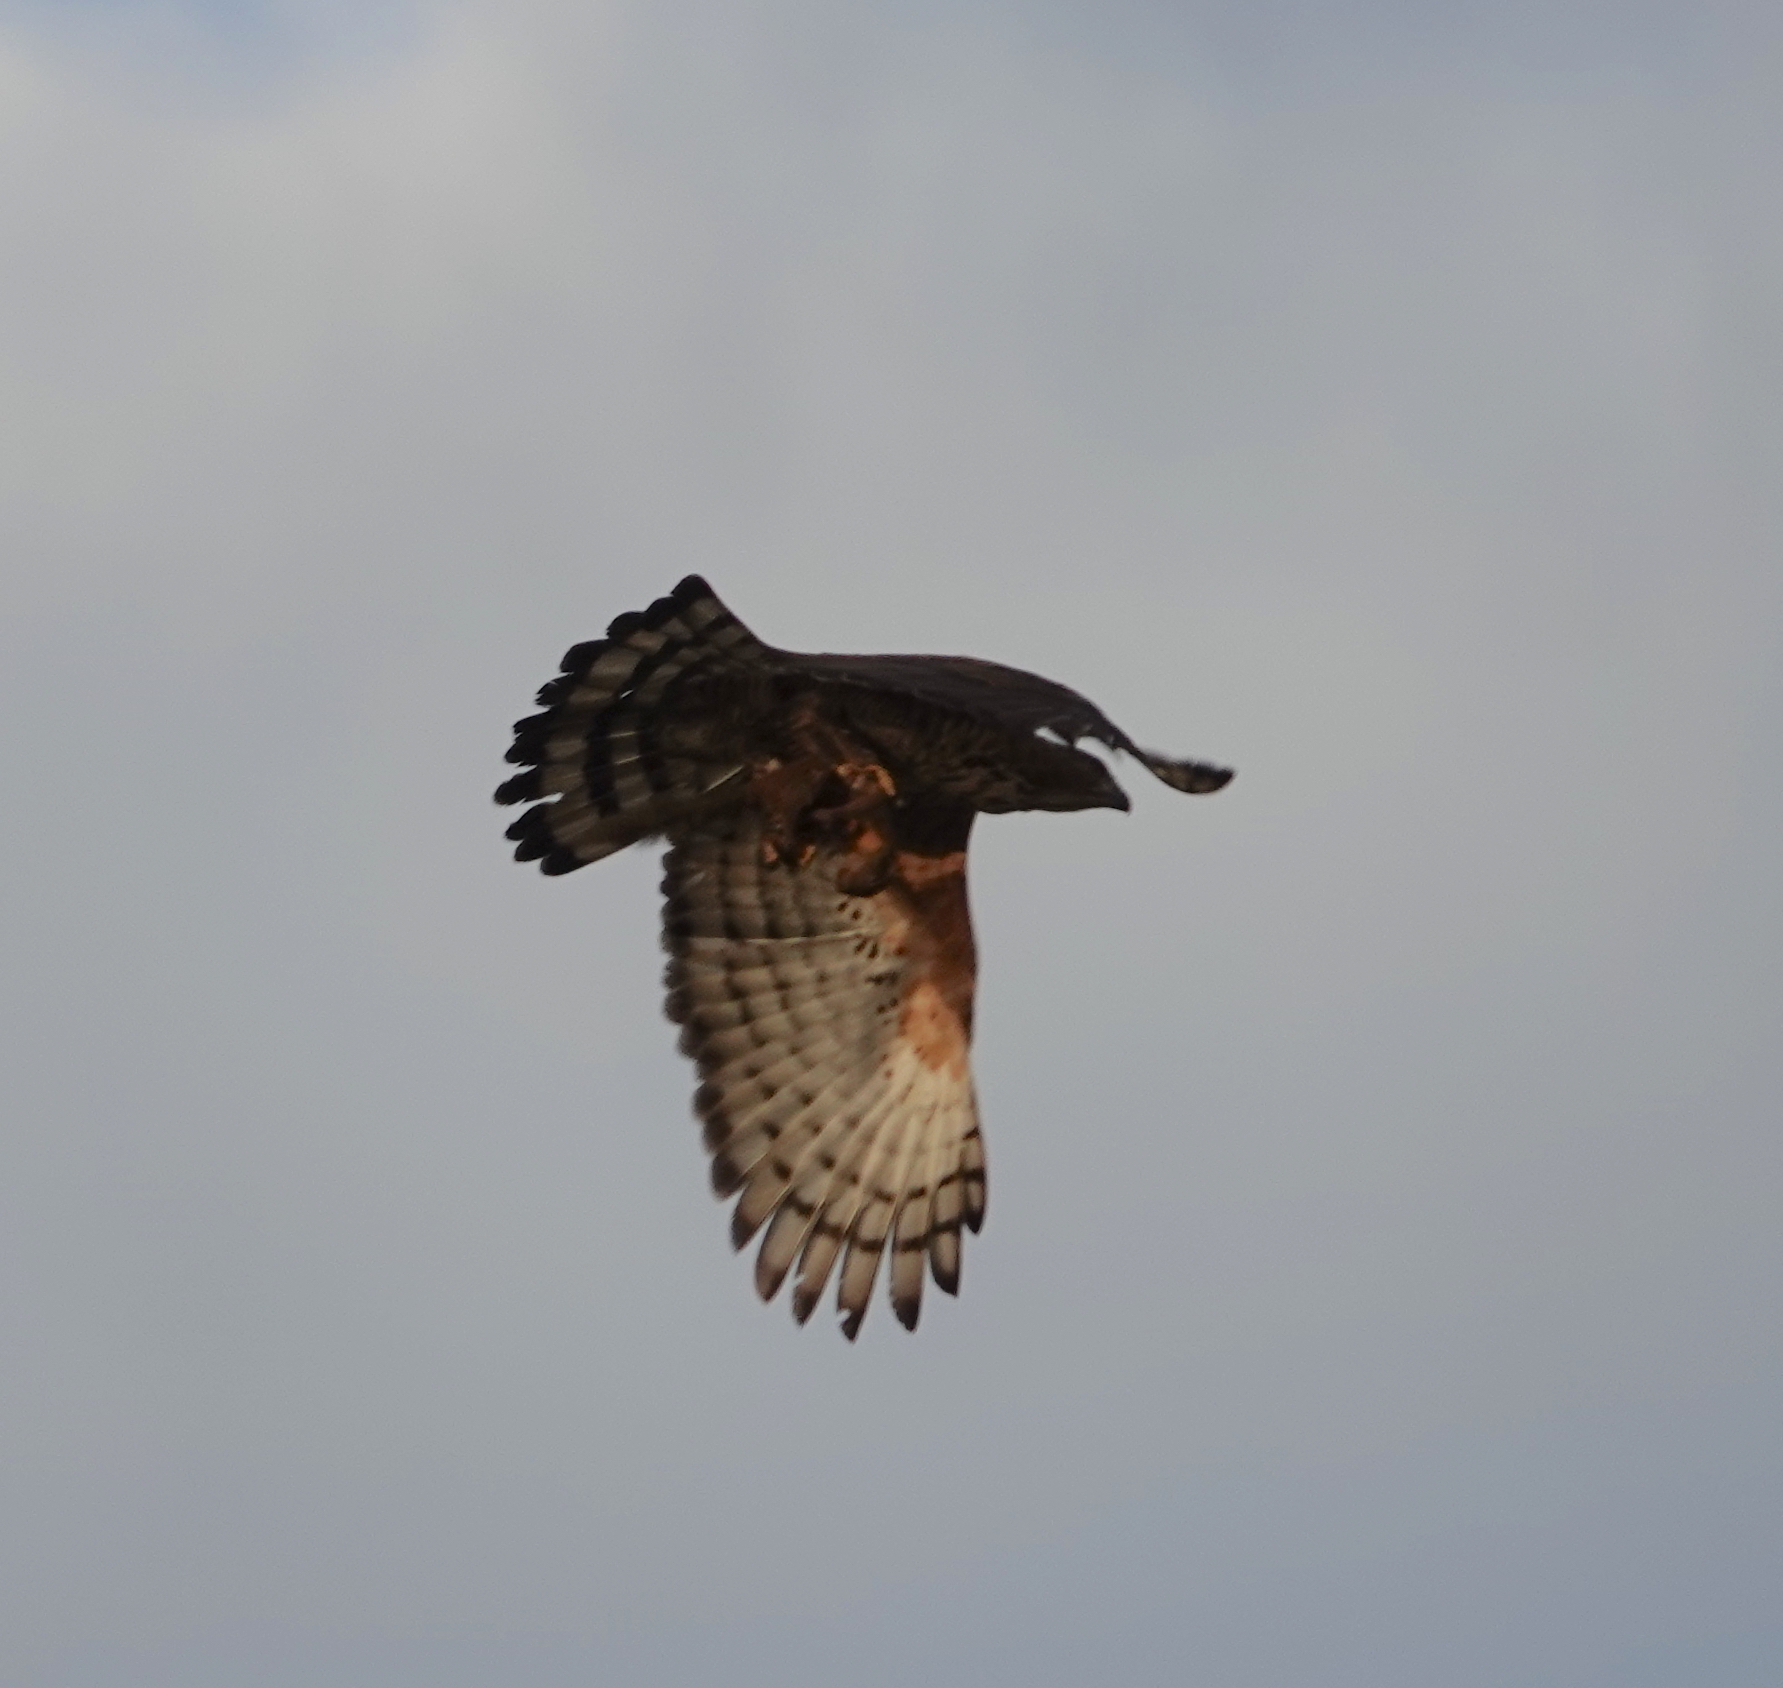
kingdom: Animalia
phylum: Chordata
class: Aves
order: Accipitriformes
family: Accipitridae
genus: Nisaetus
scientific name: Nisaetus nanus
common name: Wallace's hawk-eagle
